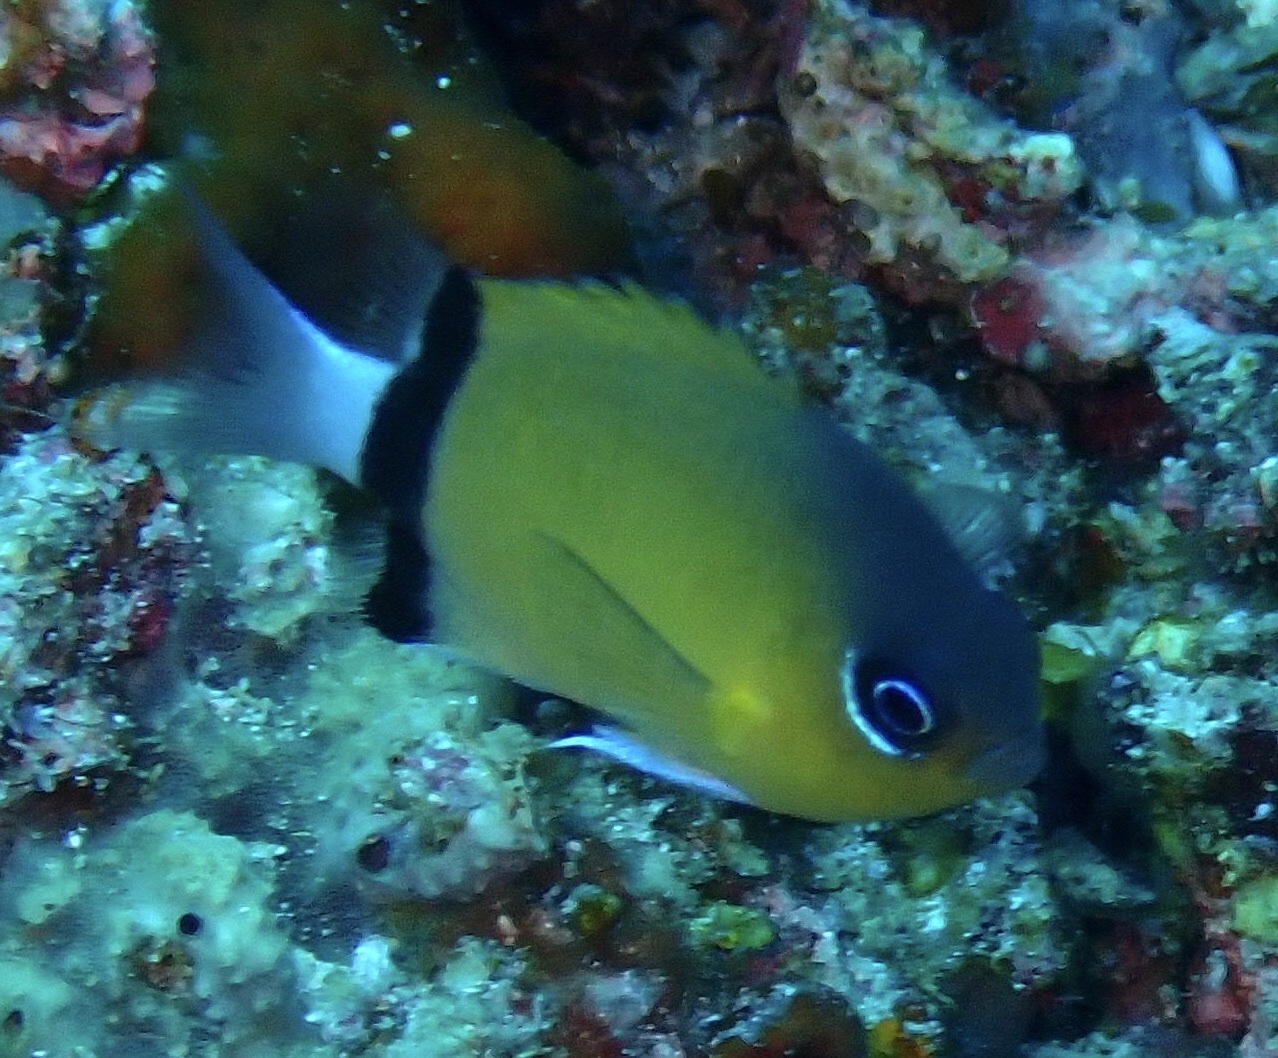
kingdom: Animalia
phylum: Chordata
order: Perciformes
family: Pomacentridae
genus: Chromis
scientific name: Chromis retrofasciata
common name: Black-bar chromis
